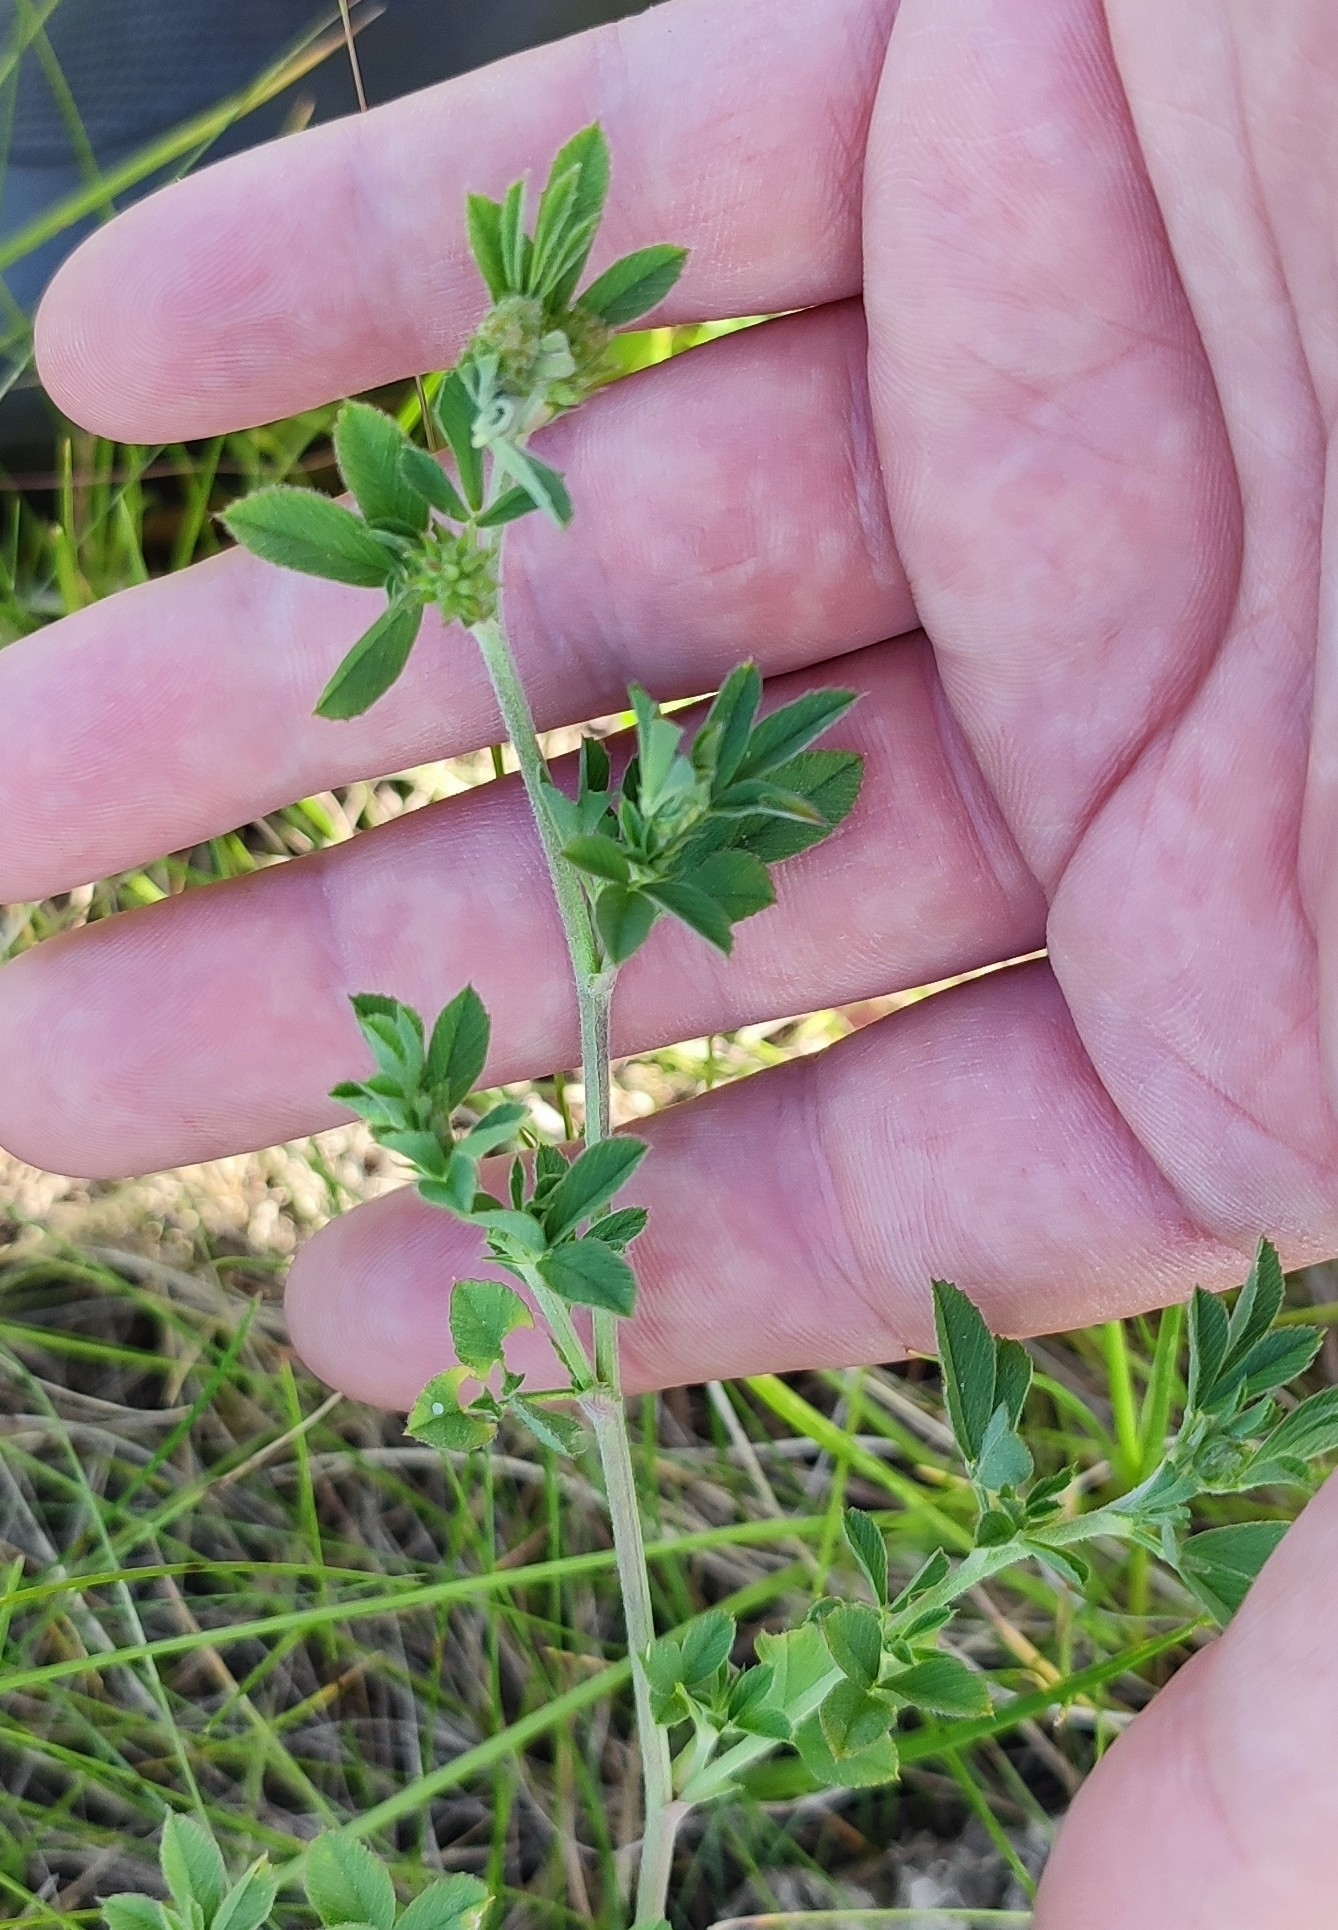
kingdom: Plantae
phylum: Tracheophyta
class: Magnoliopsida
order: Fabales
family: Fabaceae
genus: Medicago
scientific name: Medicago falcata
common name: Sickle medick
